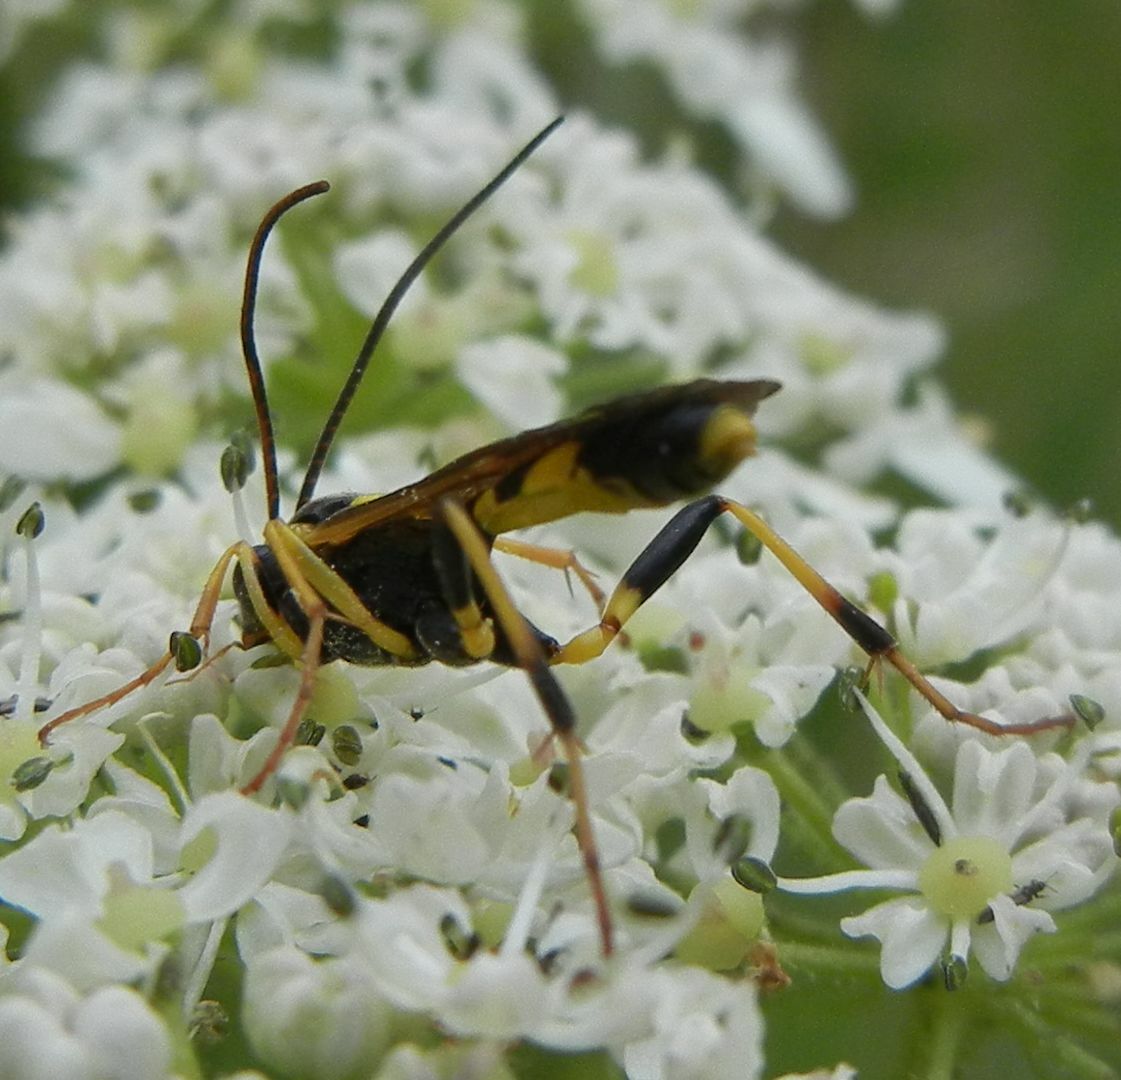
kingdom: Animalia
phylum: Arthropoda
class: Insecta
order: Hymenoptera
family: Ichneumonidae
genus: Amblyteles
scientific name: Amblyteles armatorius
